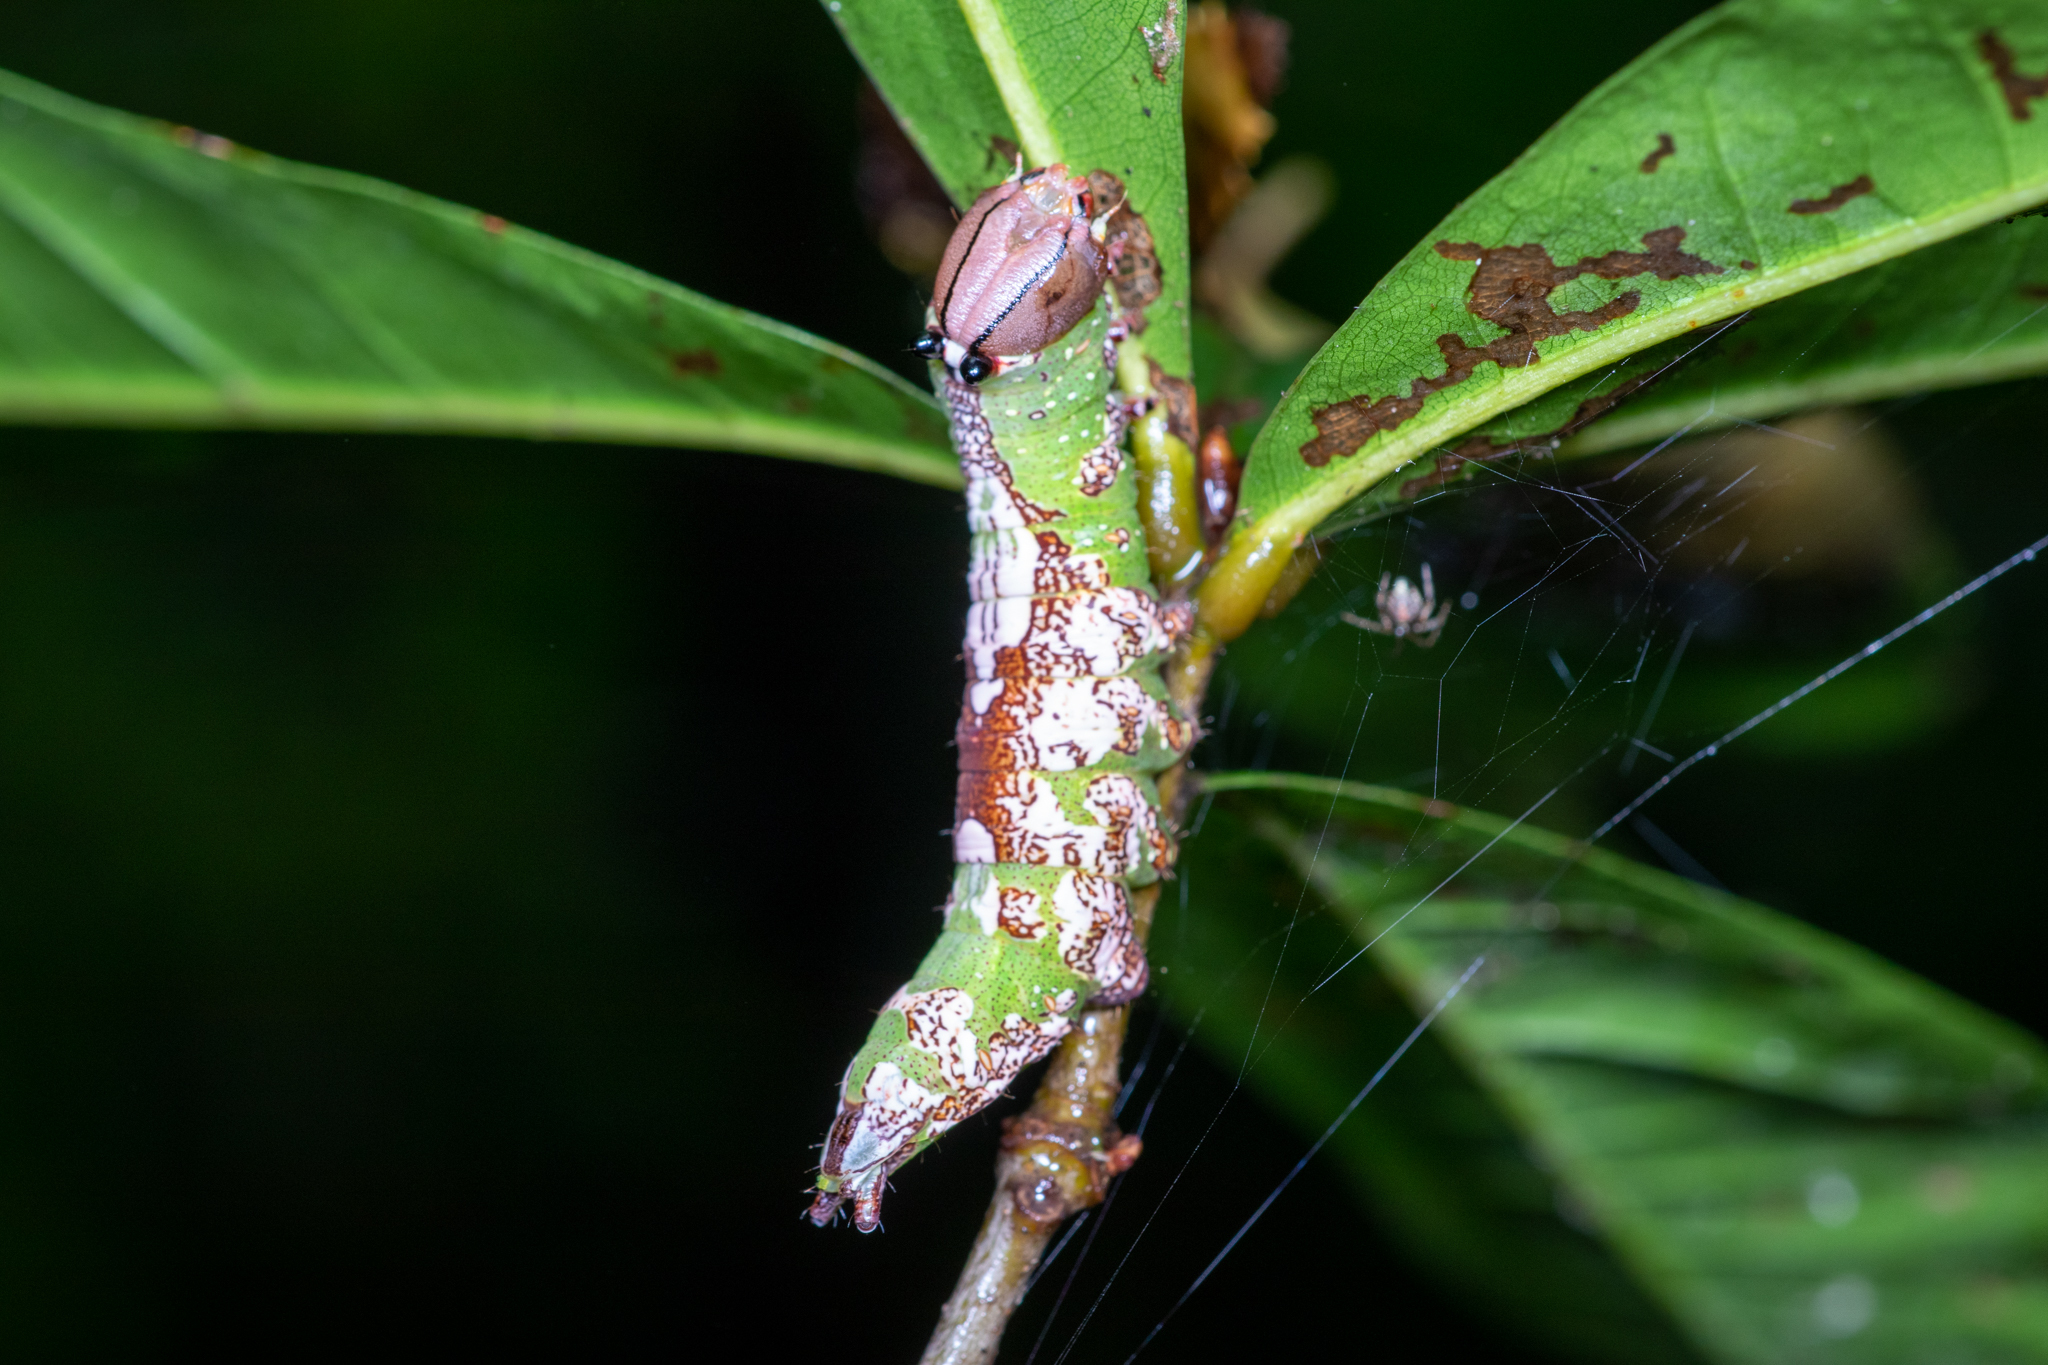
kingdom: Animalia
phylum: Arthropoda
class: Insecta
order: Lepidoptera
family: Notodontidae
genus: Heterocampa
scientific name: Heterocampa
